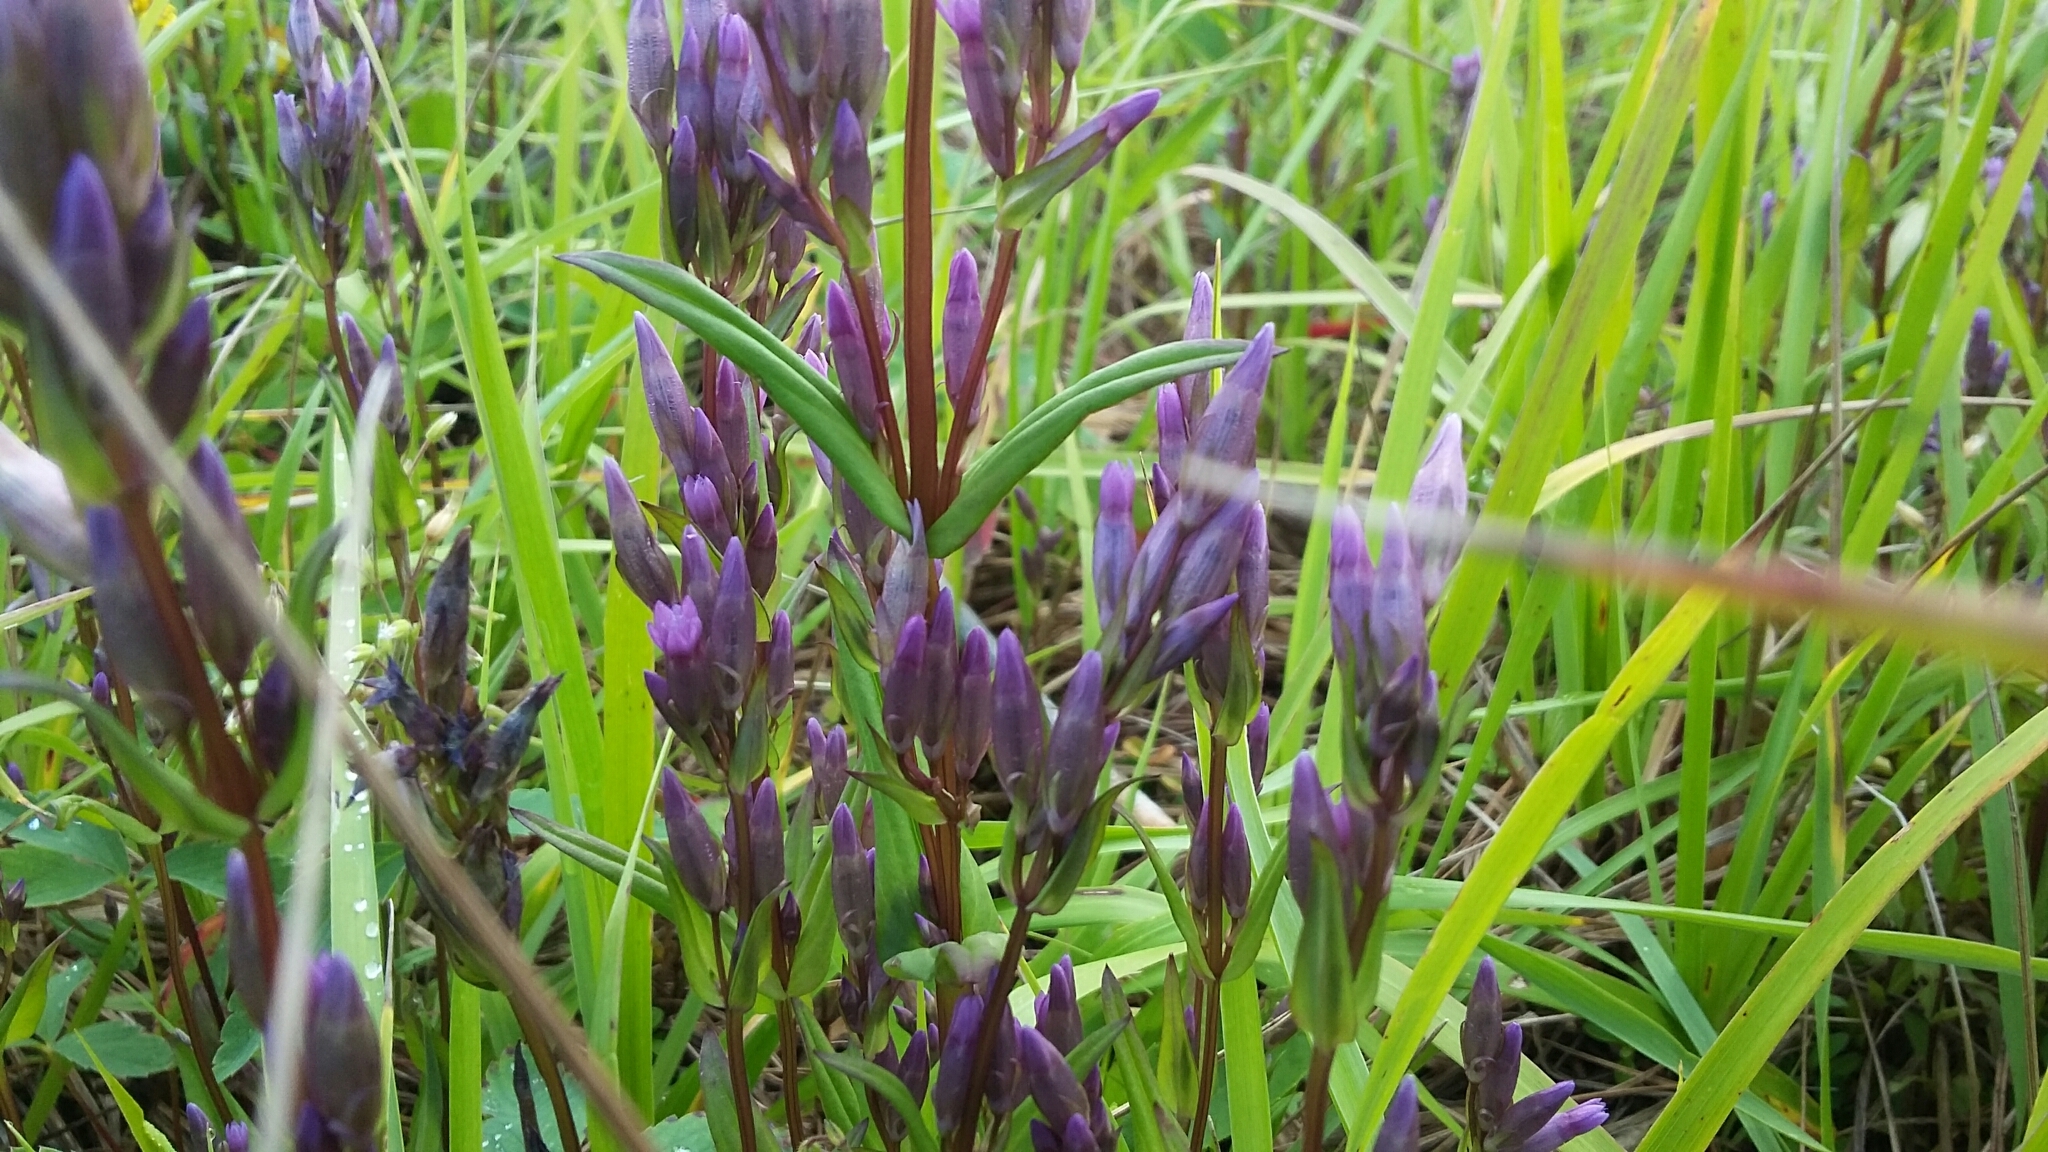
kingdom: Plantae
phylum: Tracheophyta
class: Magnoliopsida
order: Gentianales
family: Gentianaceae
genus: Gentianella
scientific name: Gentianella amarella
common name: Autumn gentian
